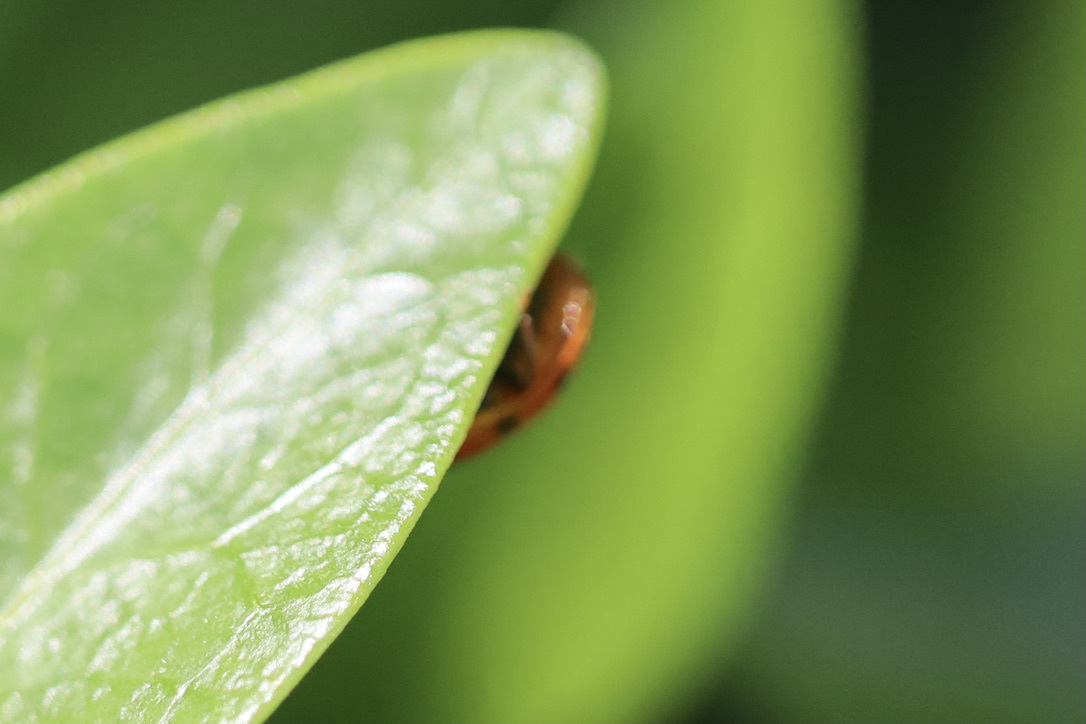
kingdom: Animalia
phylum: Arthropoda
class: Insecta
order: Coleoptera
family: Coccinellidae
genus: Harmonia
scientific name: Harmonia axyridis
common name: Harlequin ladybird
